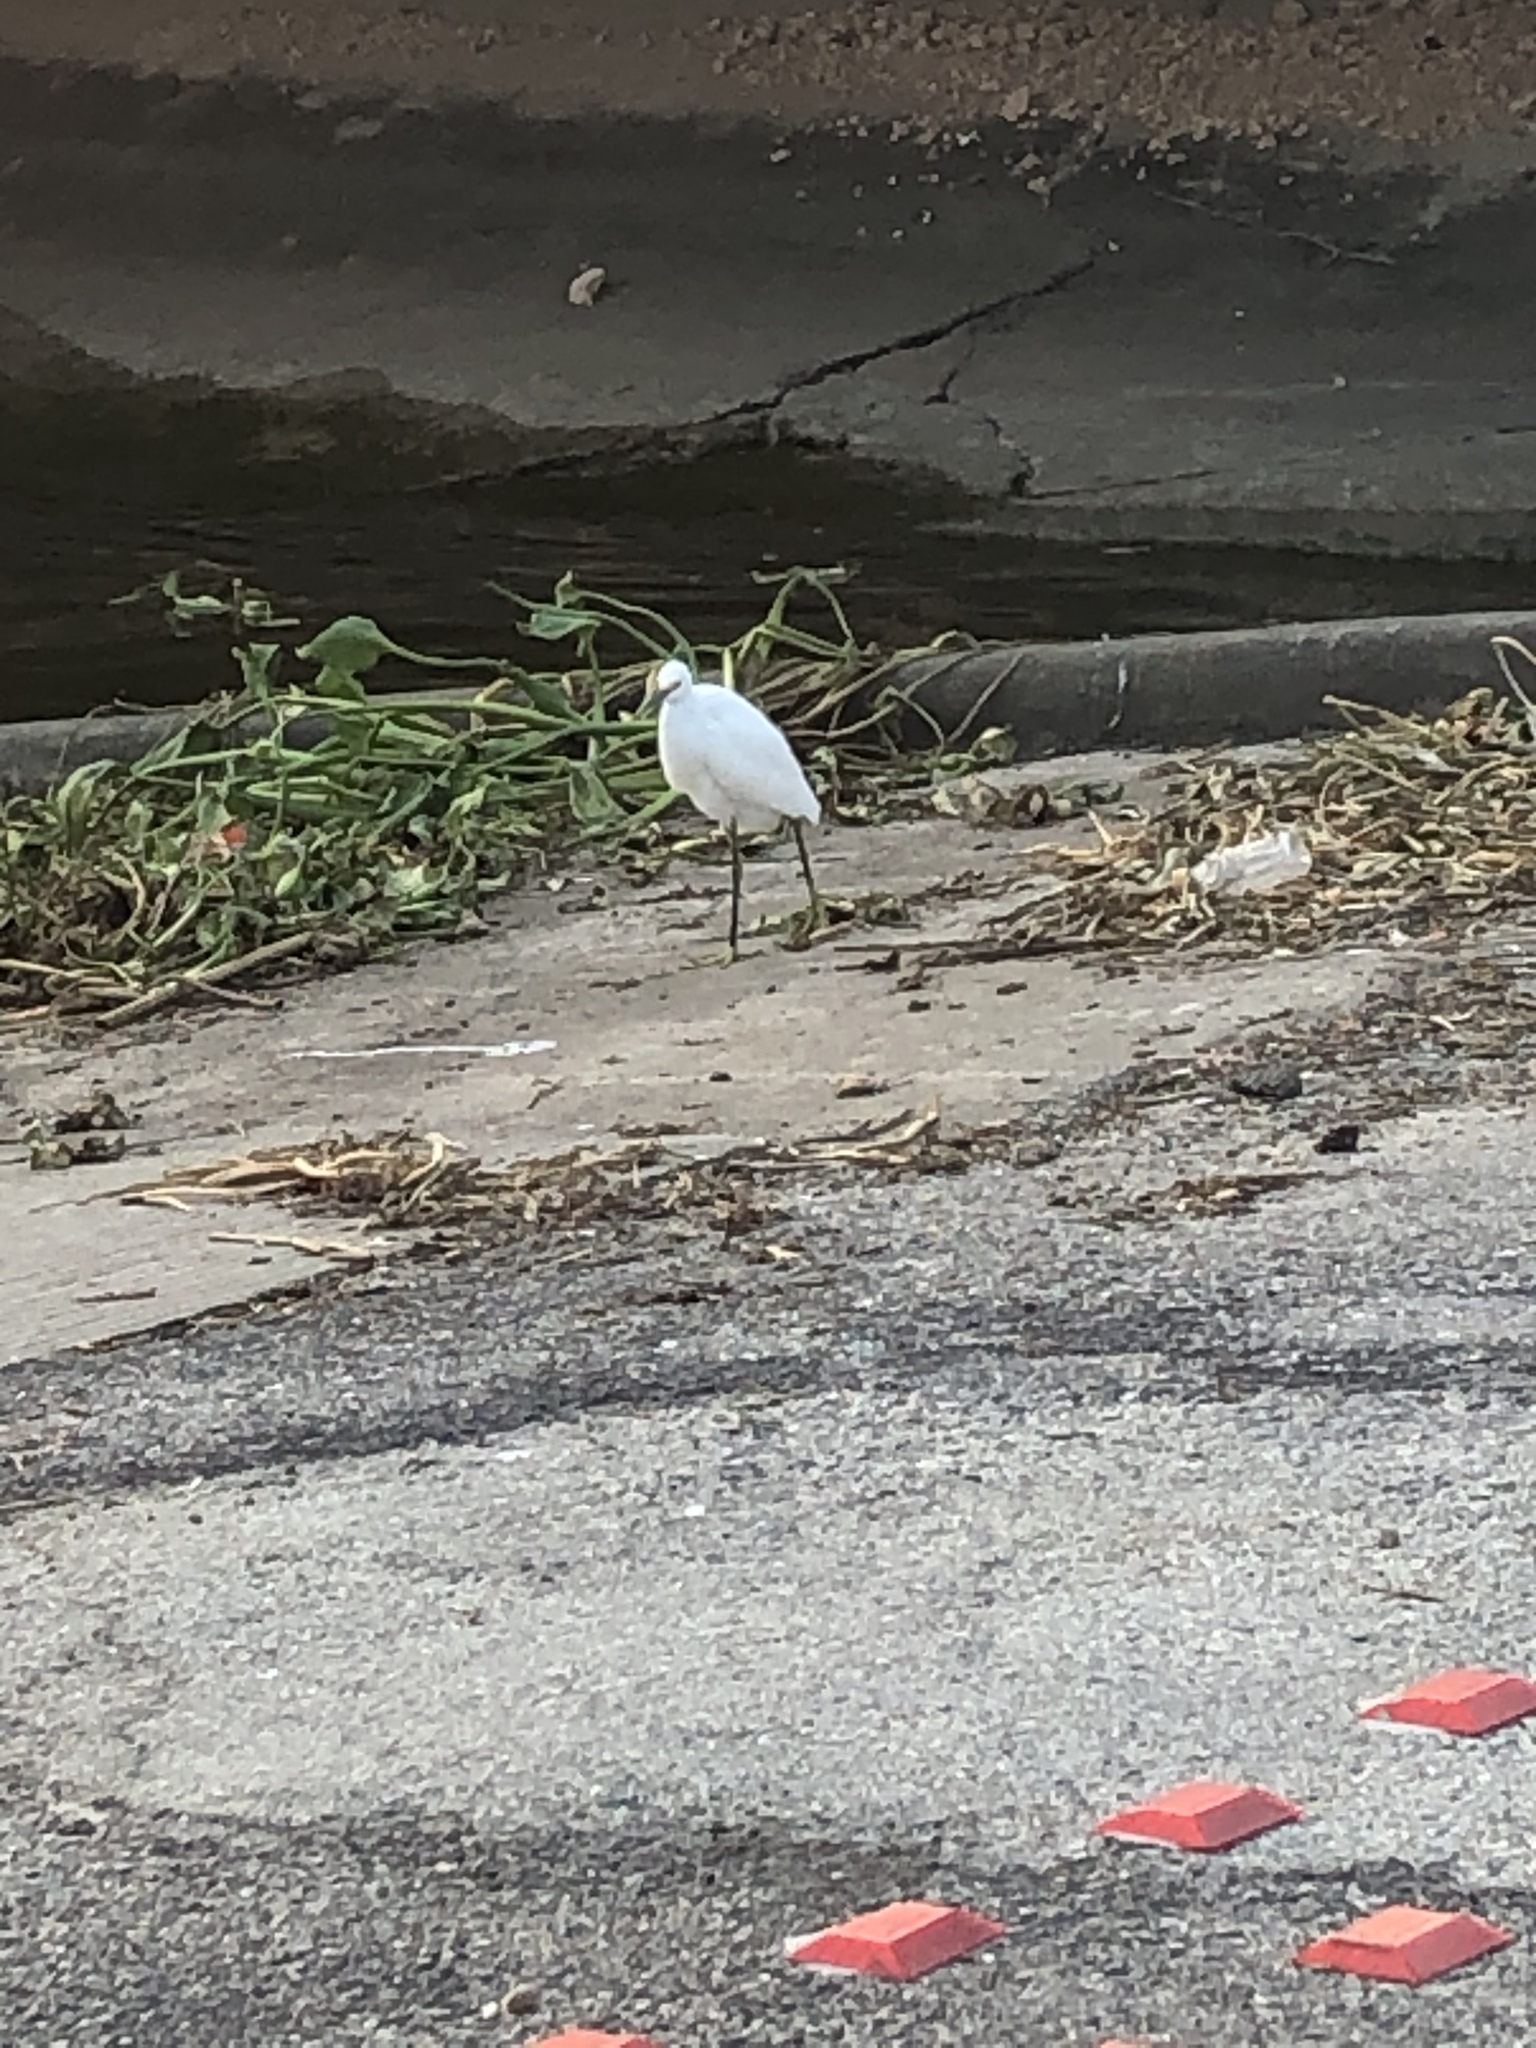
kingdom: Animalia
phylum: Chordata
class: Aves
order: Pelecaniformes
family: Ardeidae
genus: Egretta
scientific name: Egretta thula
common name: Snowy egret
